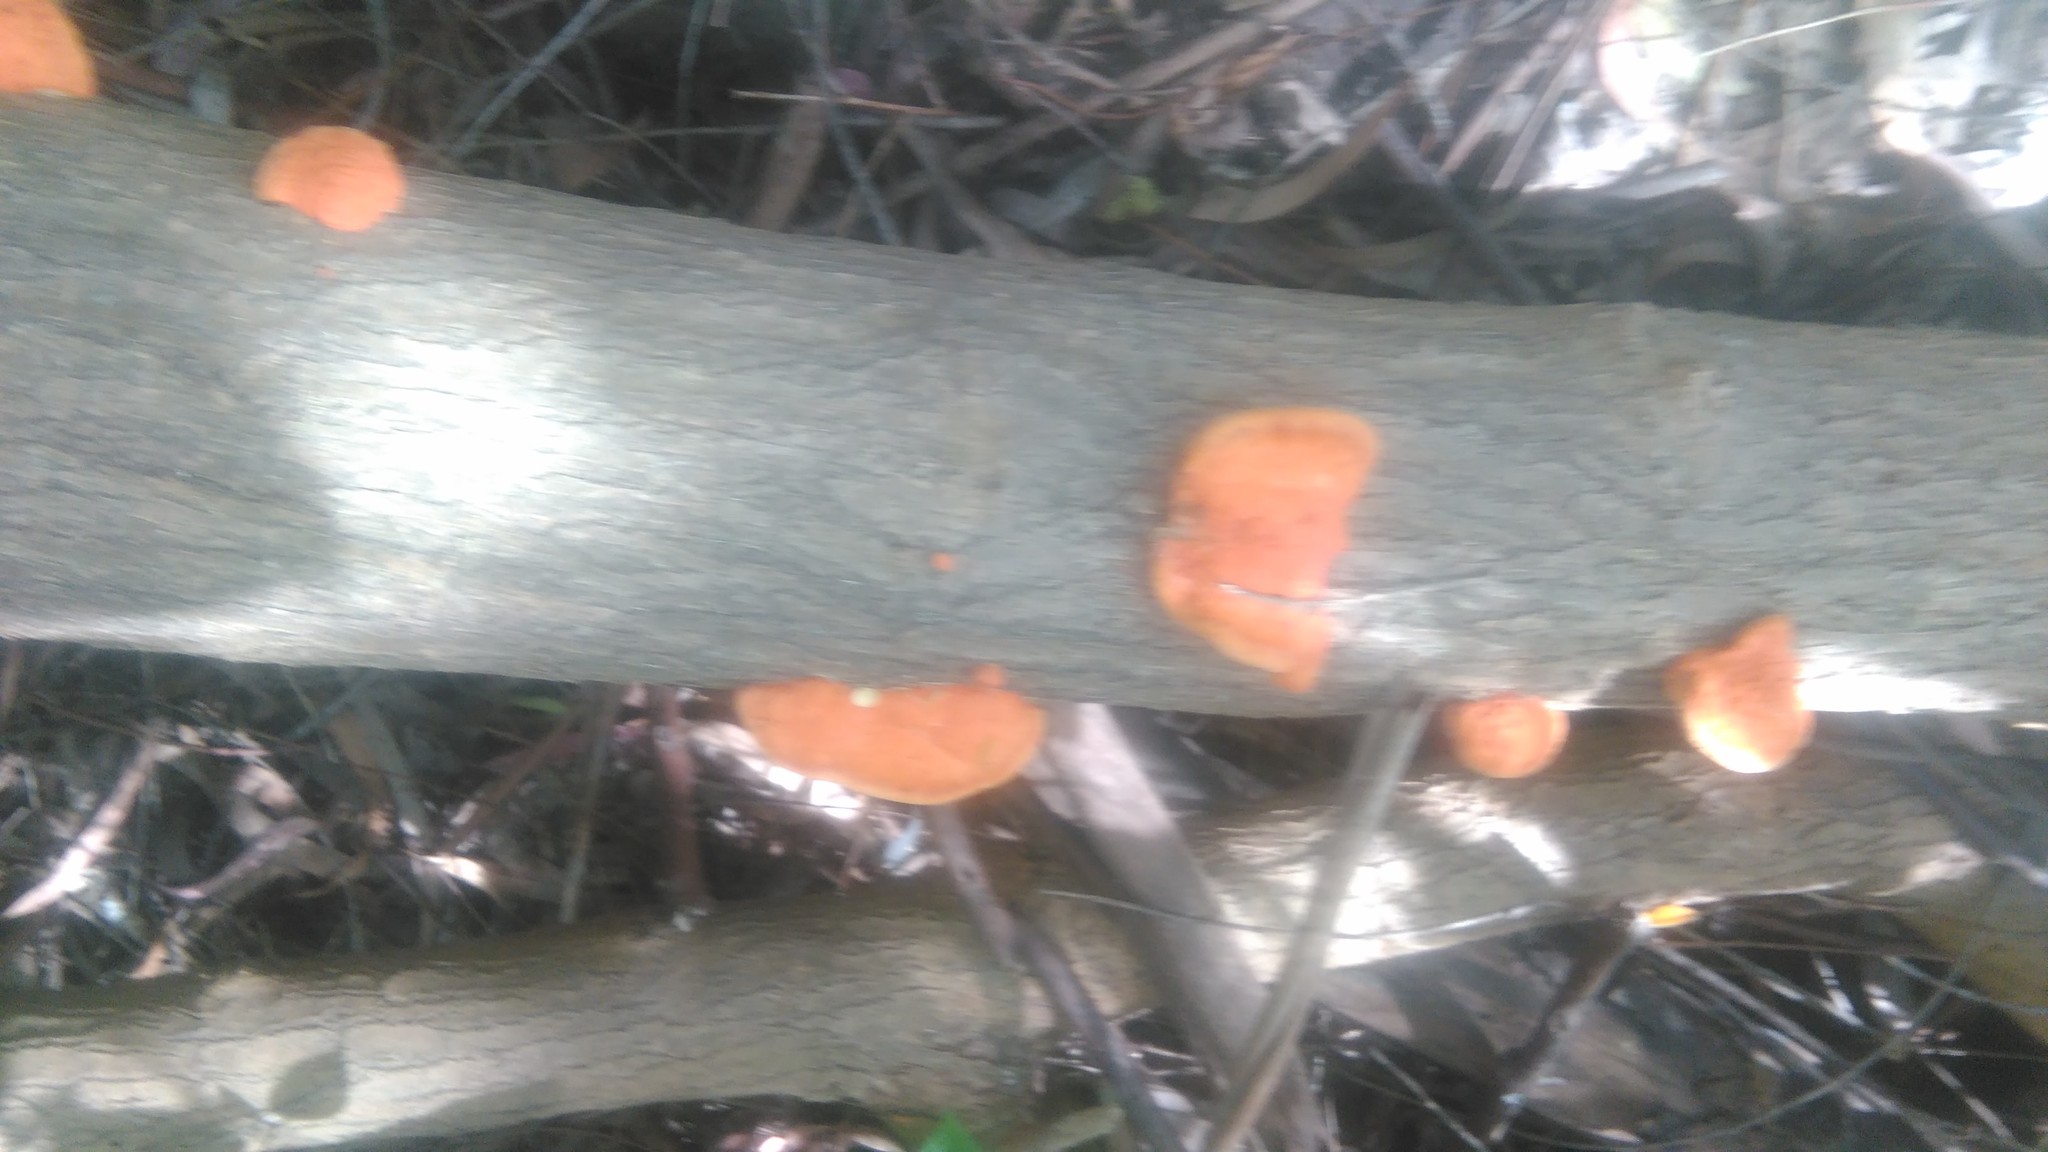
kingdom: Fungi
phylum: Basidiomycota
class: Agaricomycetes
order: Polyporales
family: Polyporaceae
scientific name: Polyporaceae
